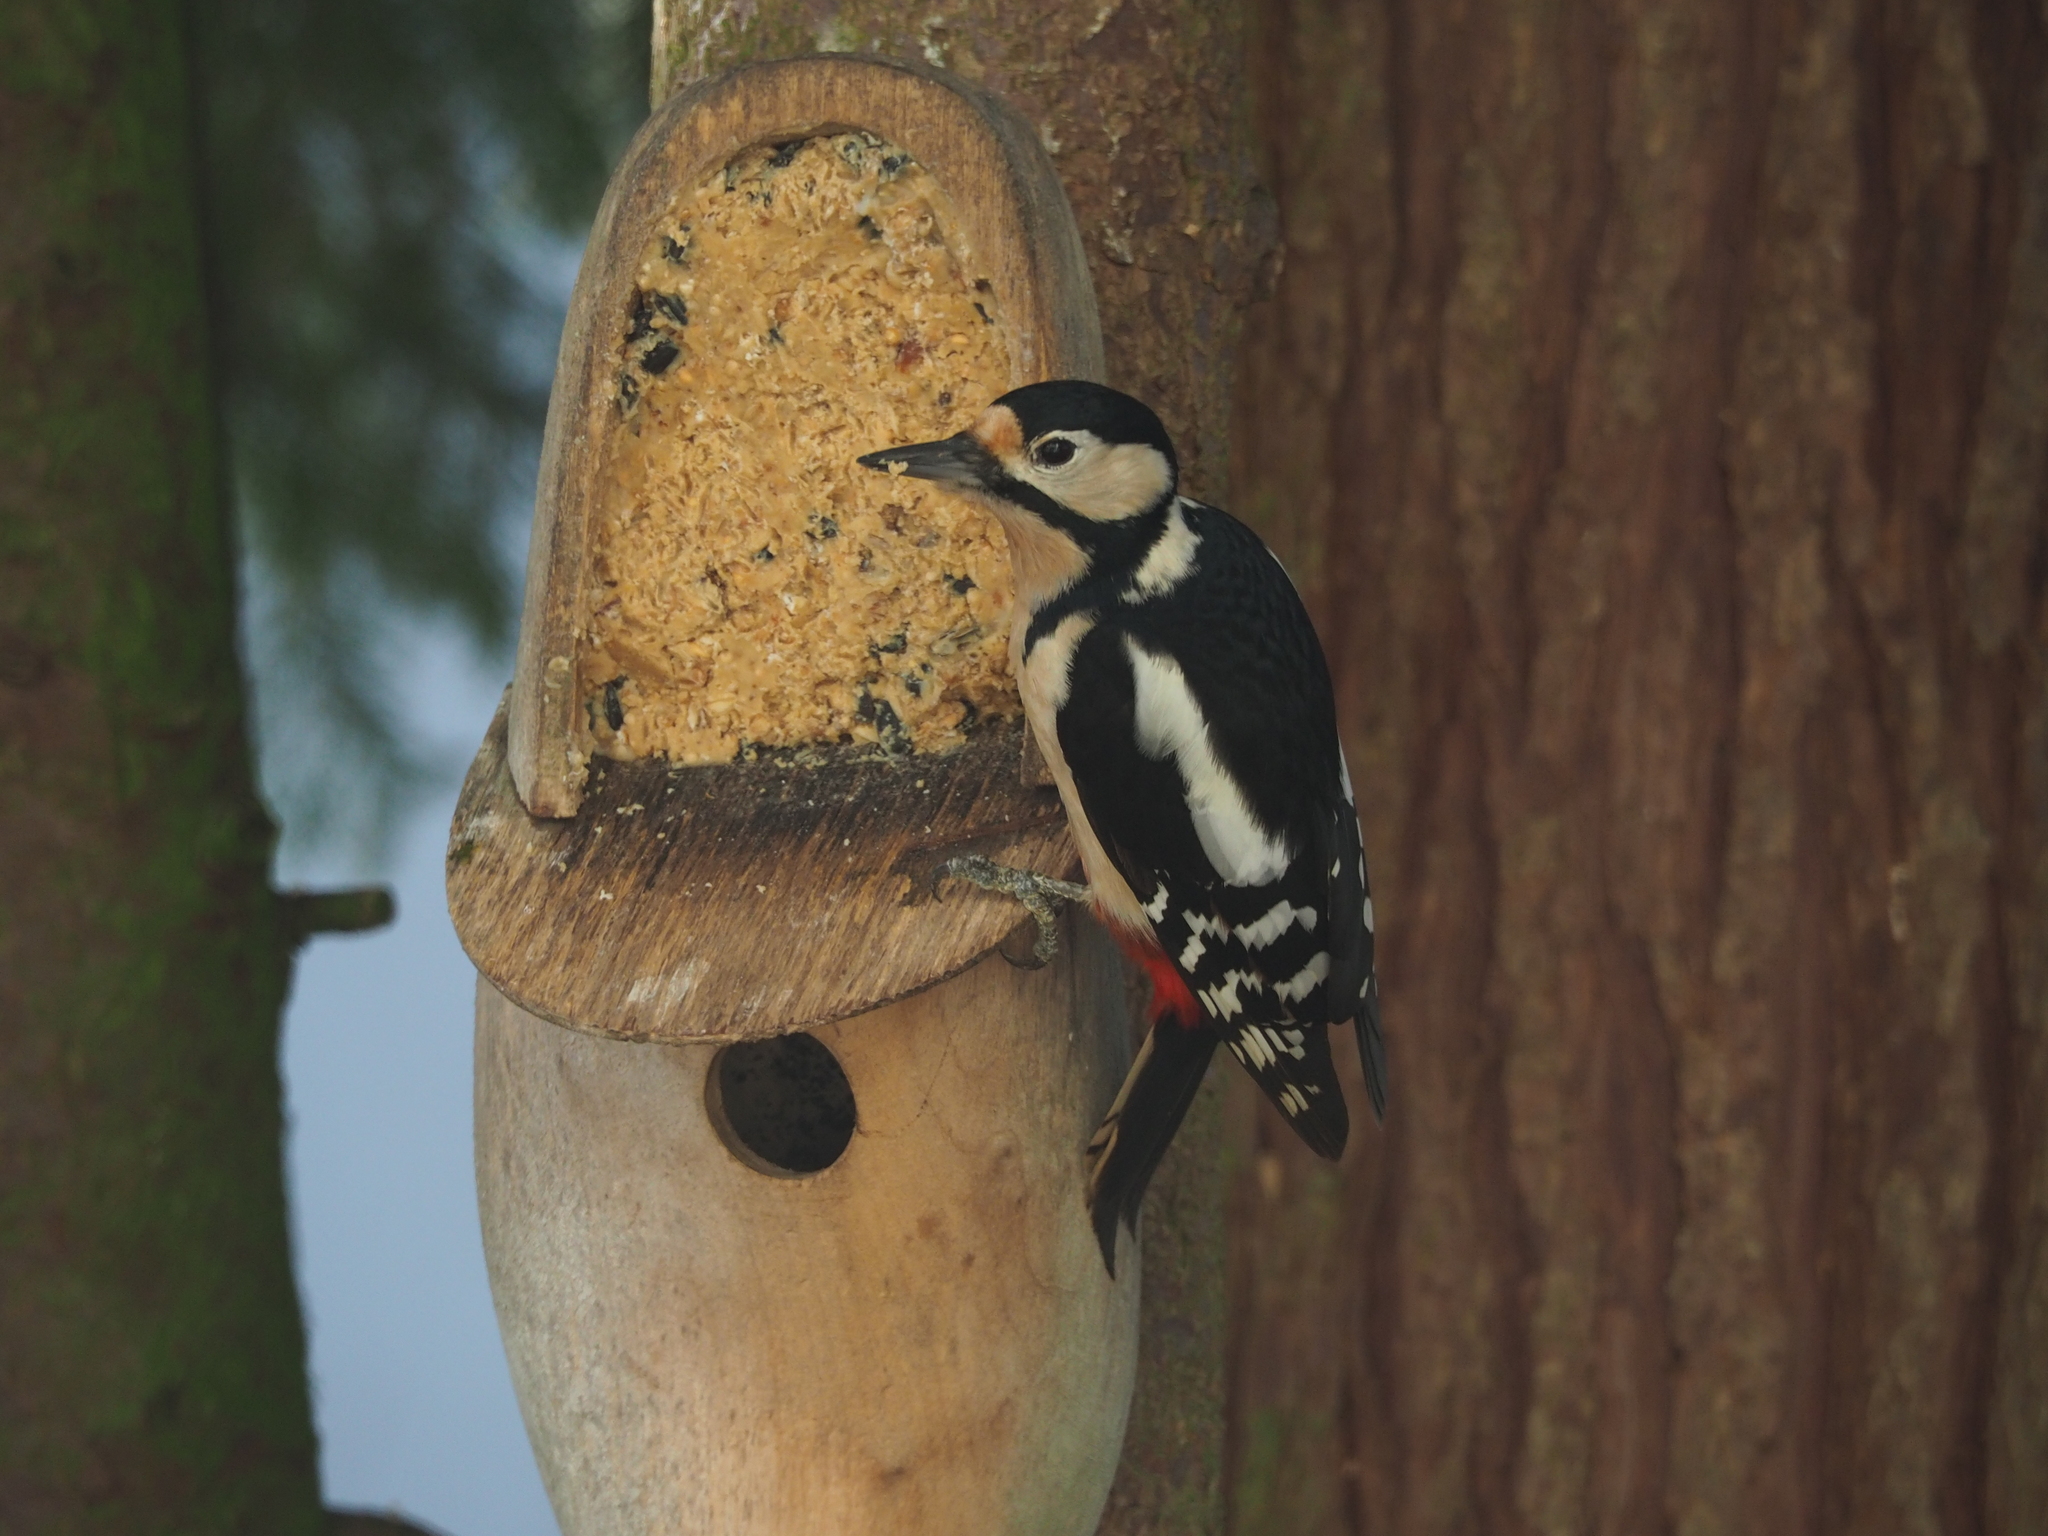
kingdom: Animalia
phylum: Chordata
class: Aves
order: Piciformes
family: Picidae
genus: Dendrocopos
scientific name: Dendrocopos major
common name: Great spotted woodpecker
